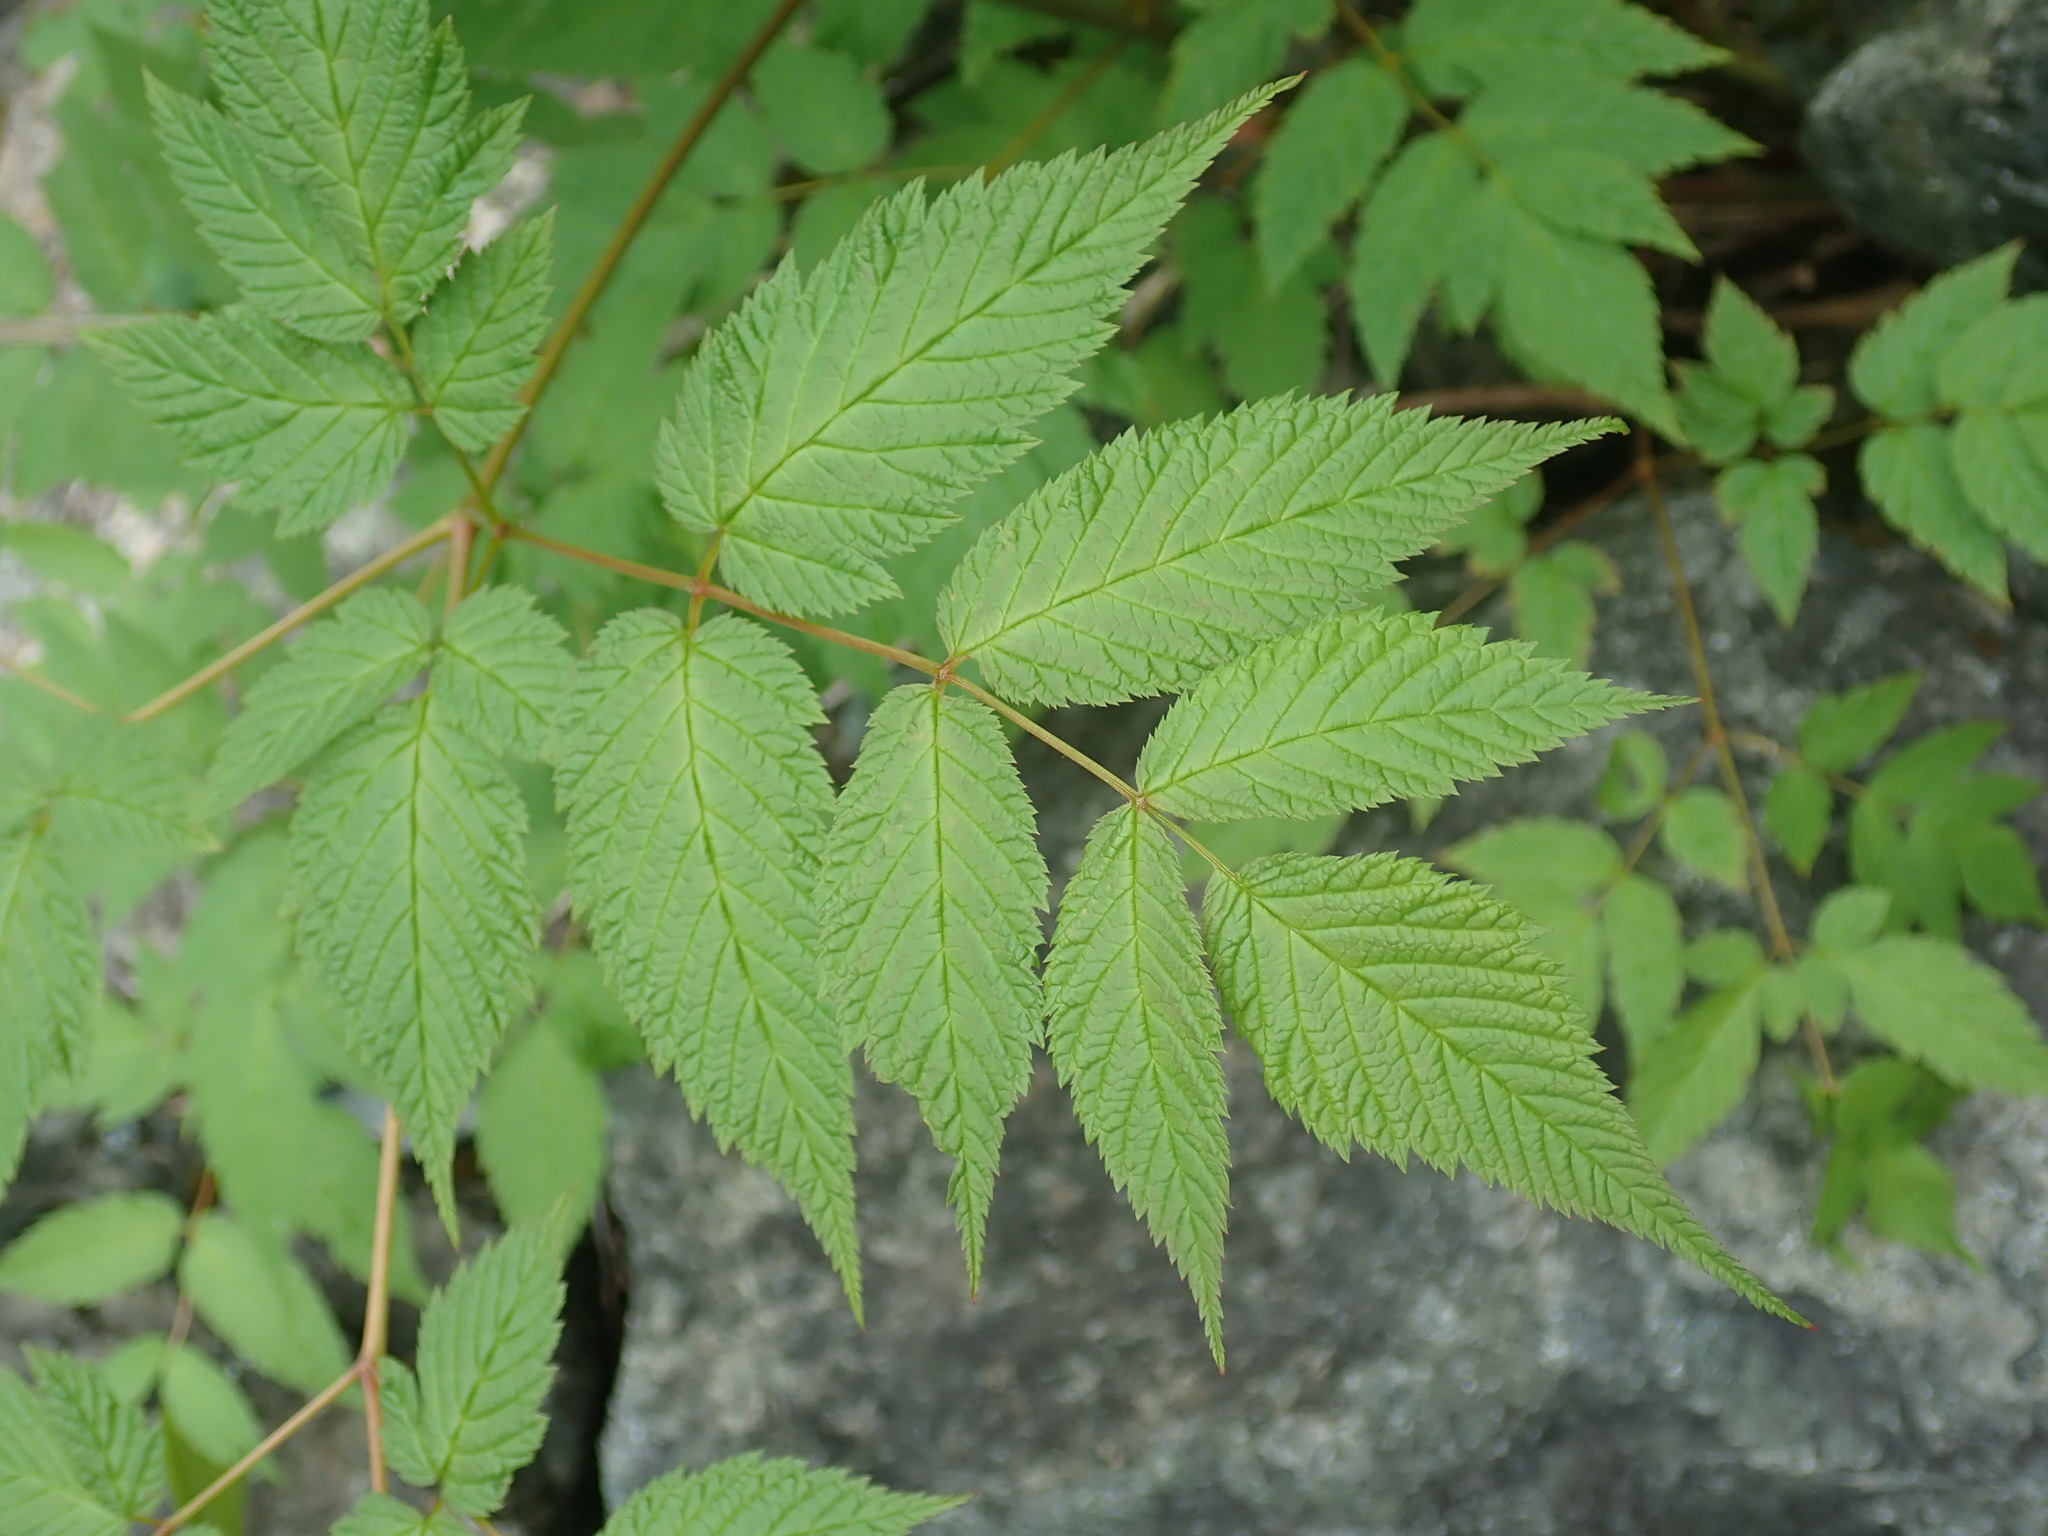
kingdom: Plantae
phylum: Tracheophyta
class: Magnoliopsida
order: Rosales
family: Rosaceae
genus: Aruncus
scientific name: Aruncus dioicus
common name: Buck's-beard
